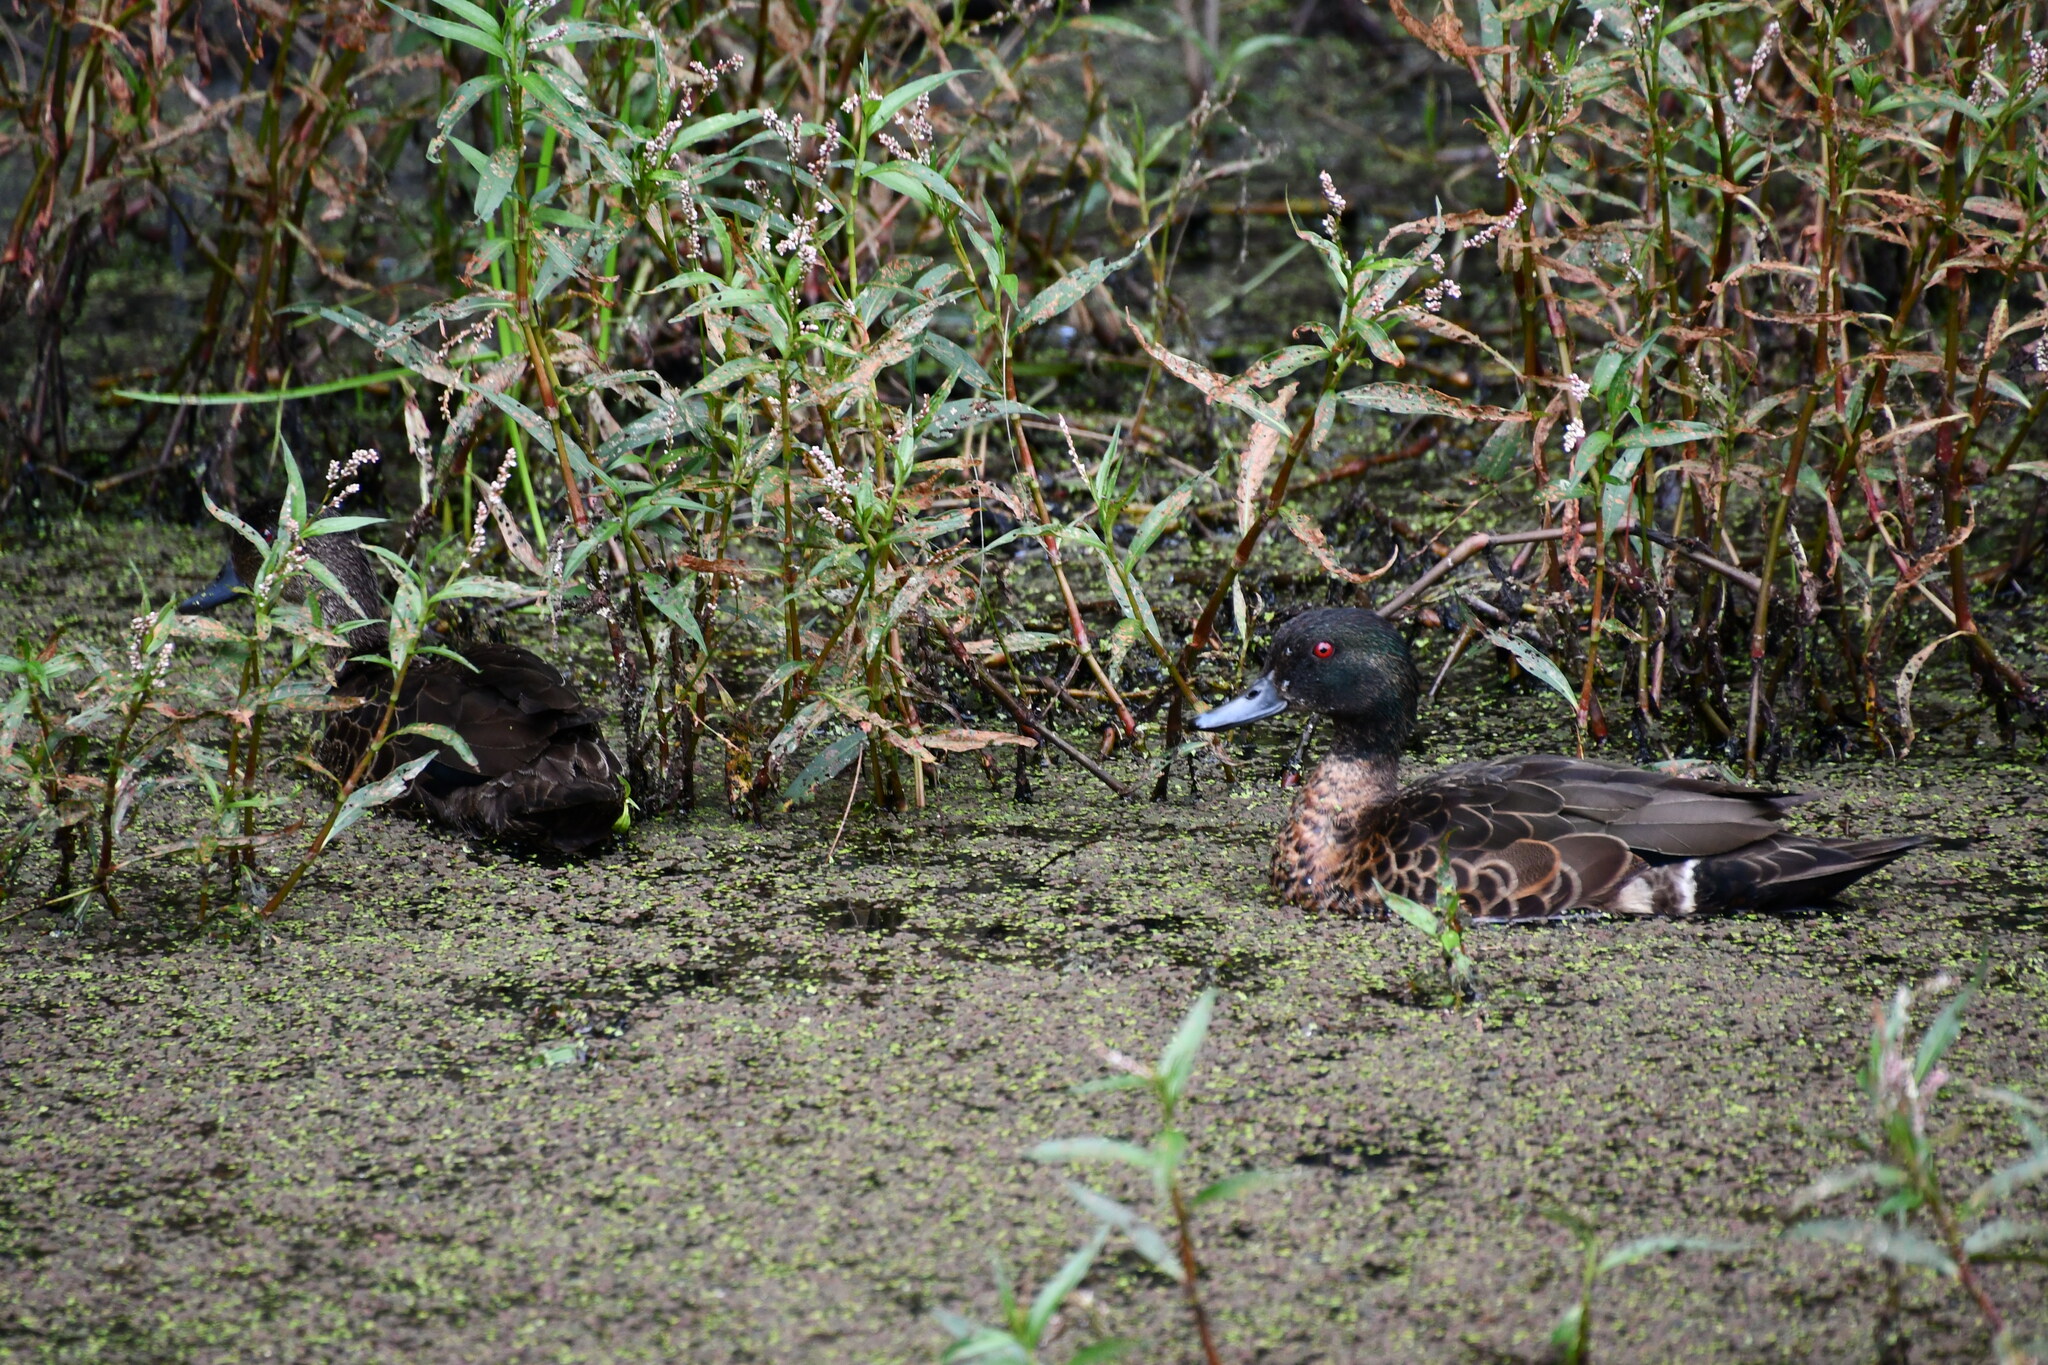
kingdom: Animalia
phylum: Chordata
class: Aves
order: Anseriformes
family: Anatidae
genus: Anas
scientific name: Anas castanea
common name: Chestnut teal
